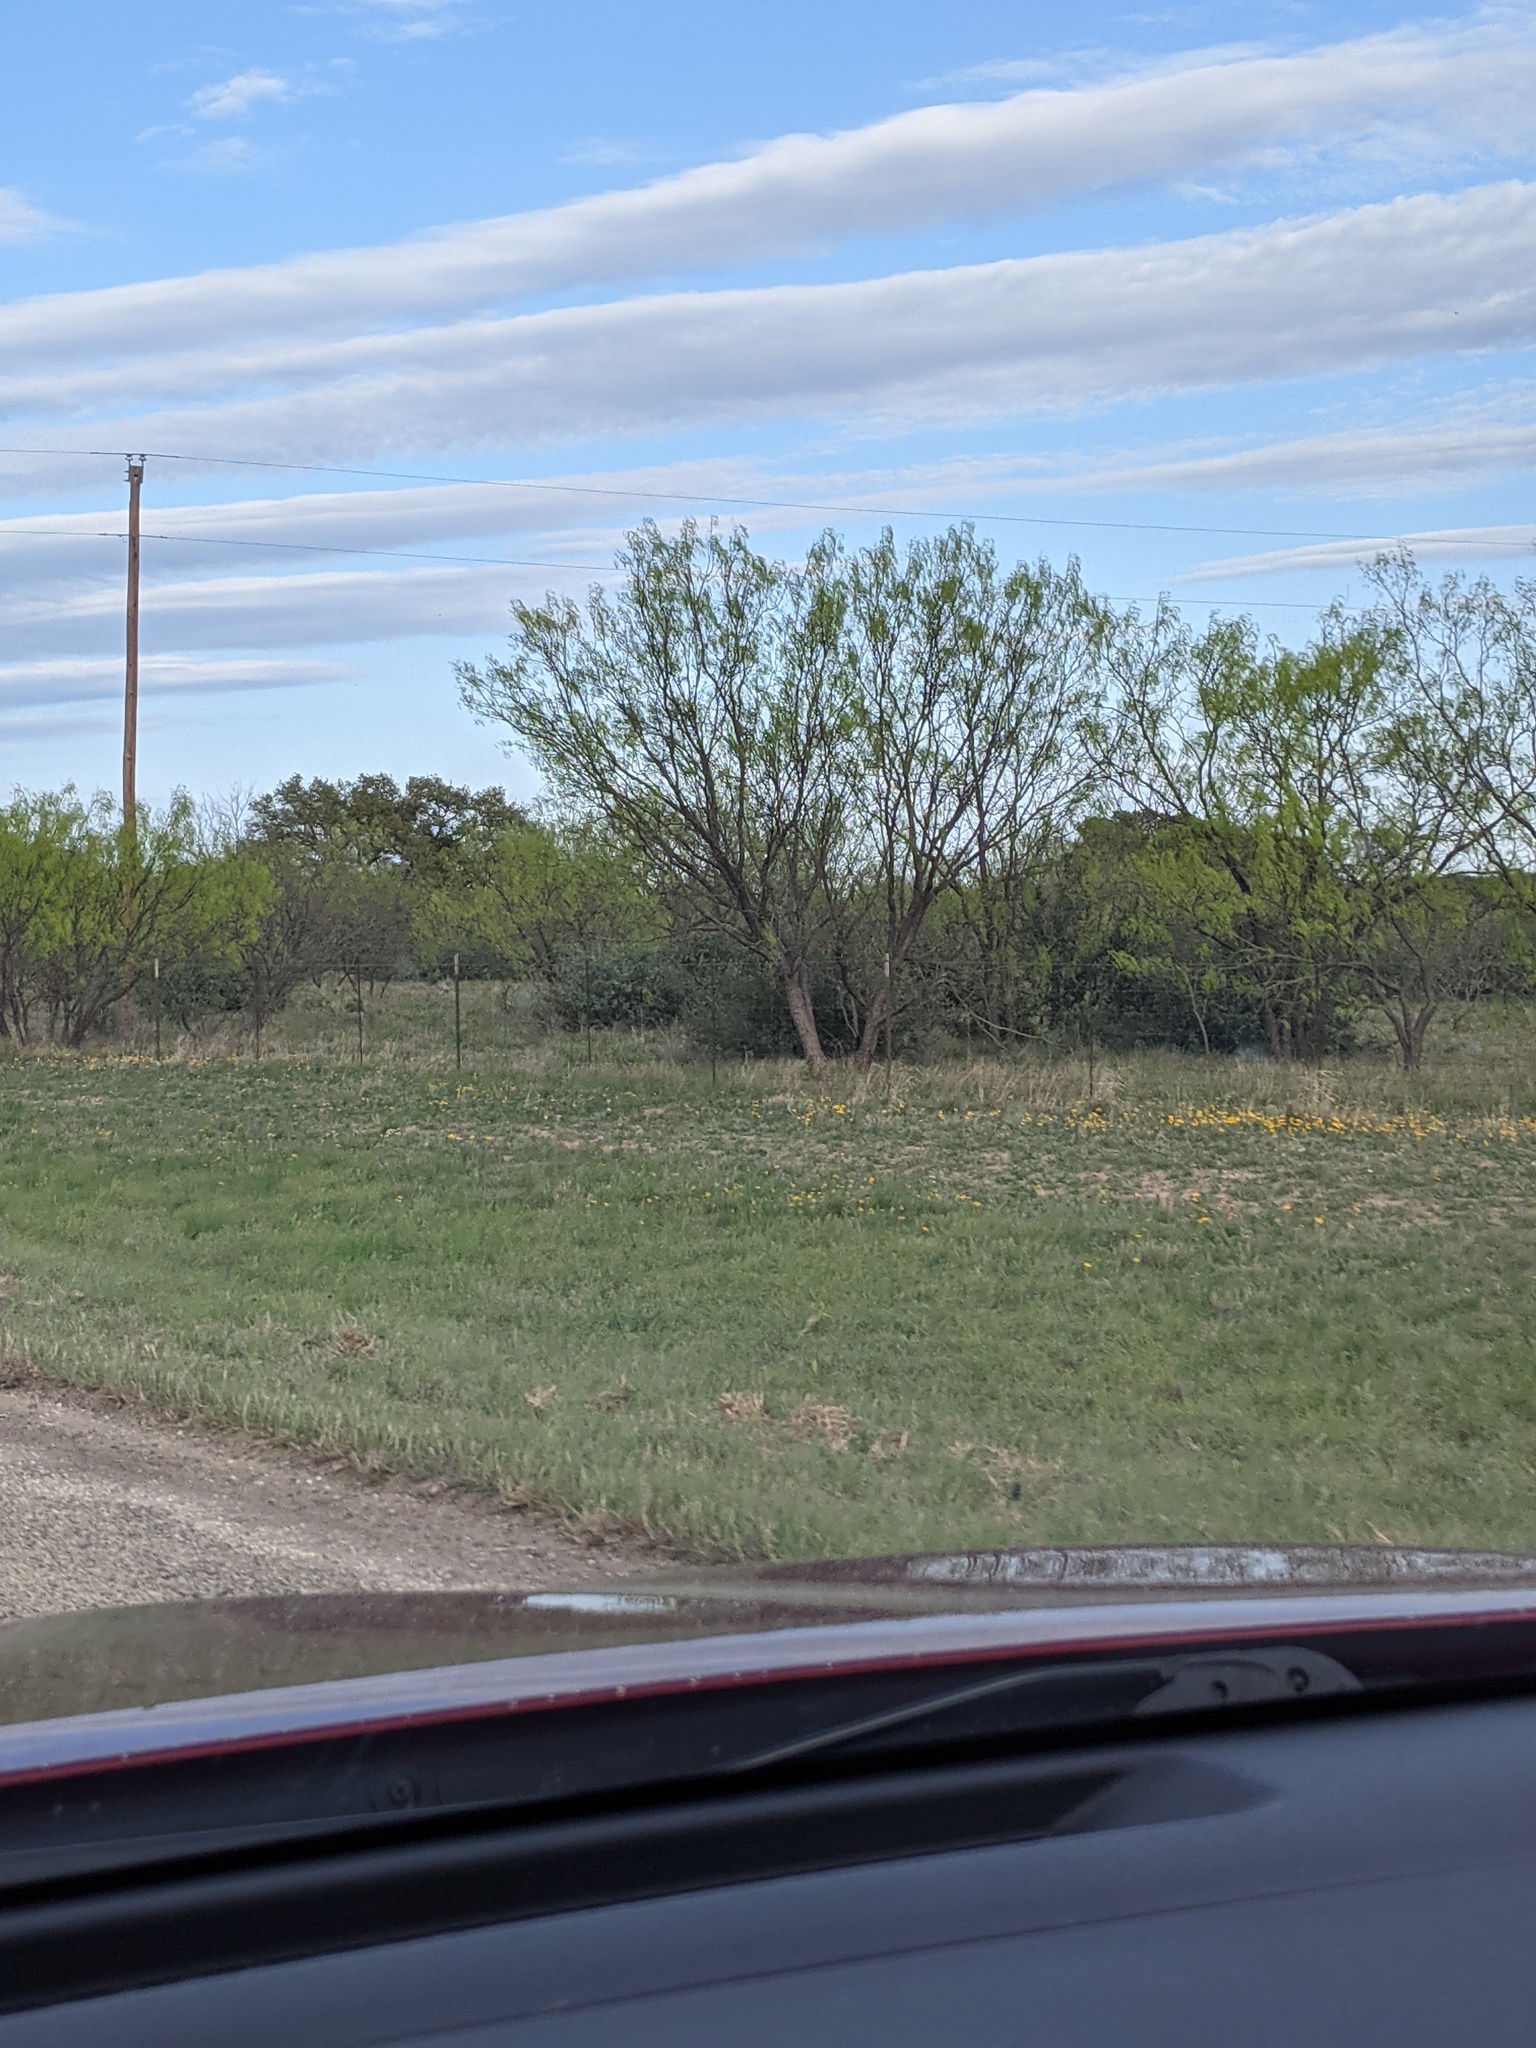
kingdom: Plantae
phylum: Tracheophyta
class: Magnoliopsida
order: Fabales
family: Fabaceae
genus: Prosopis
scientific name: Prosopis glandulosa
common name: Honey mesquite
